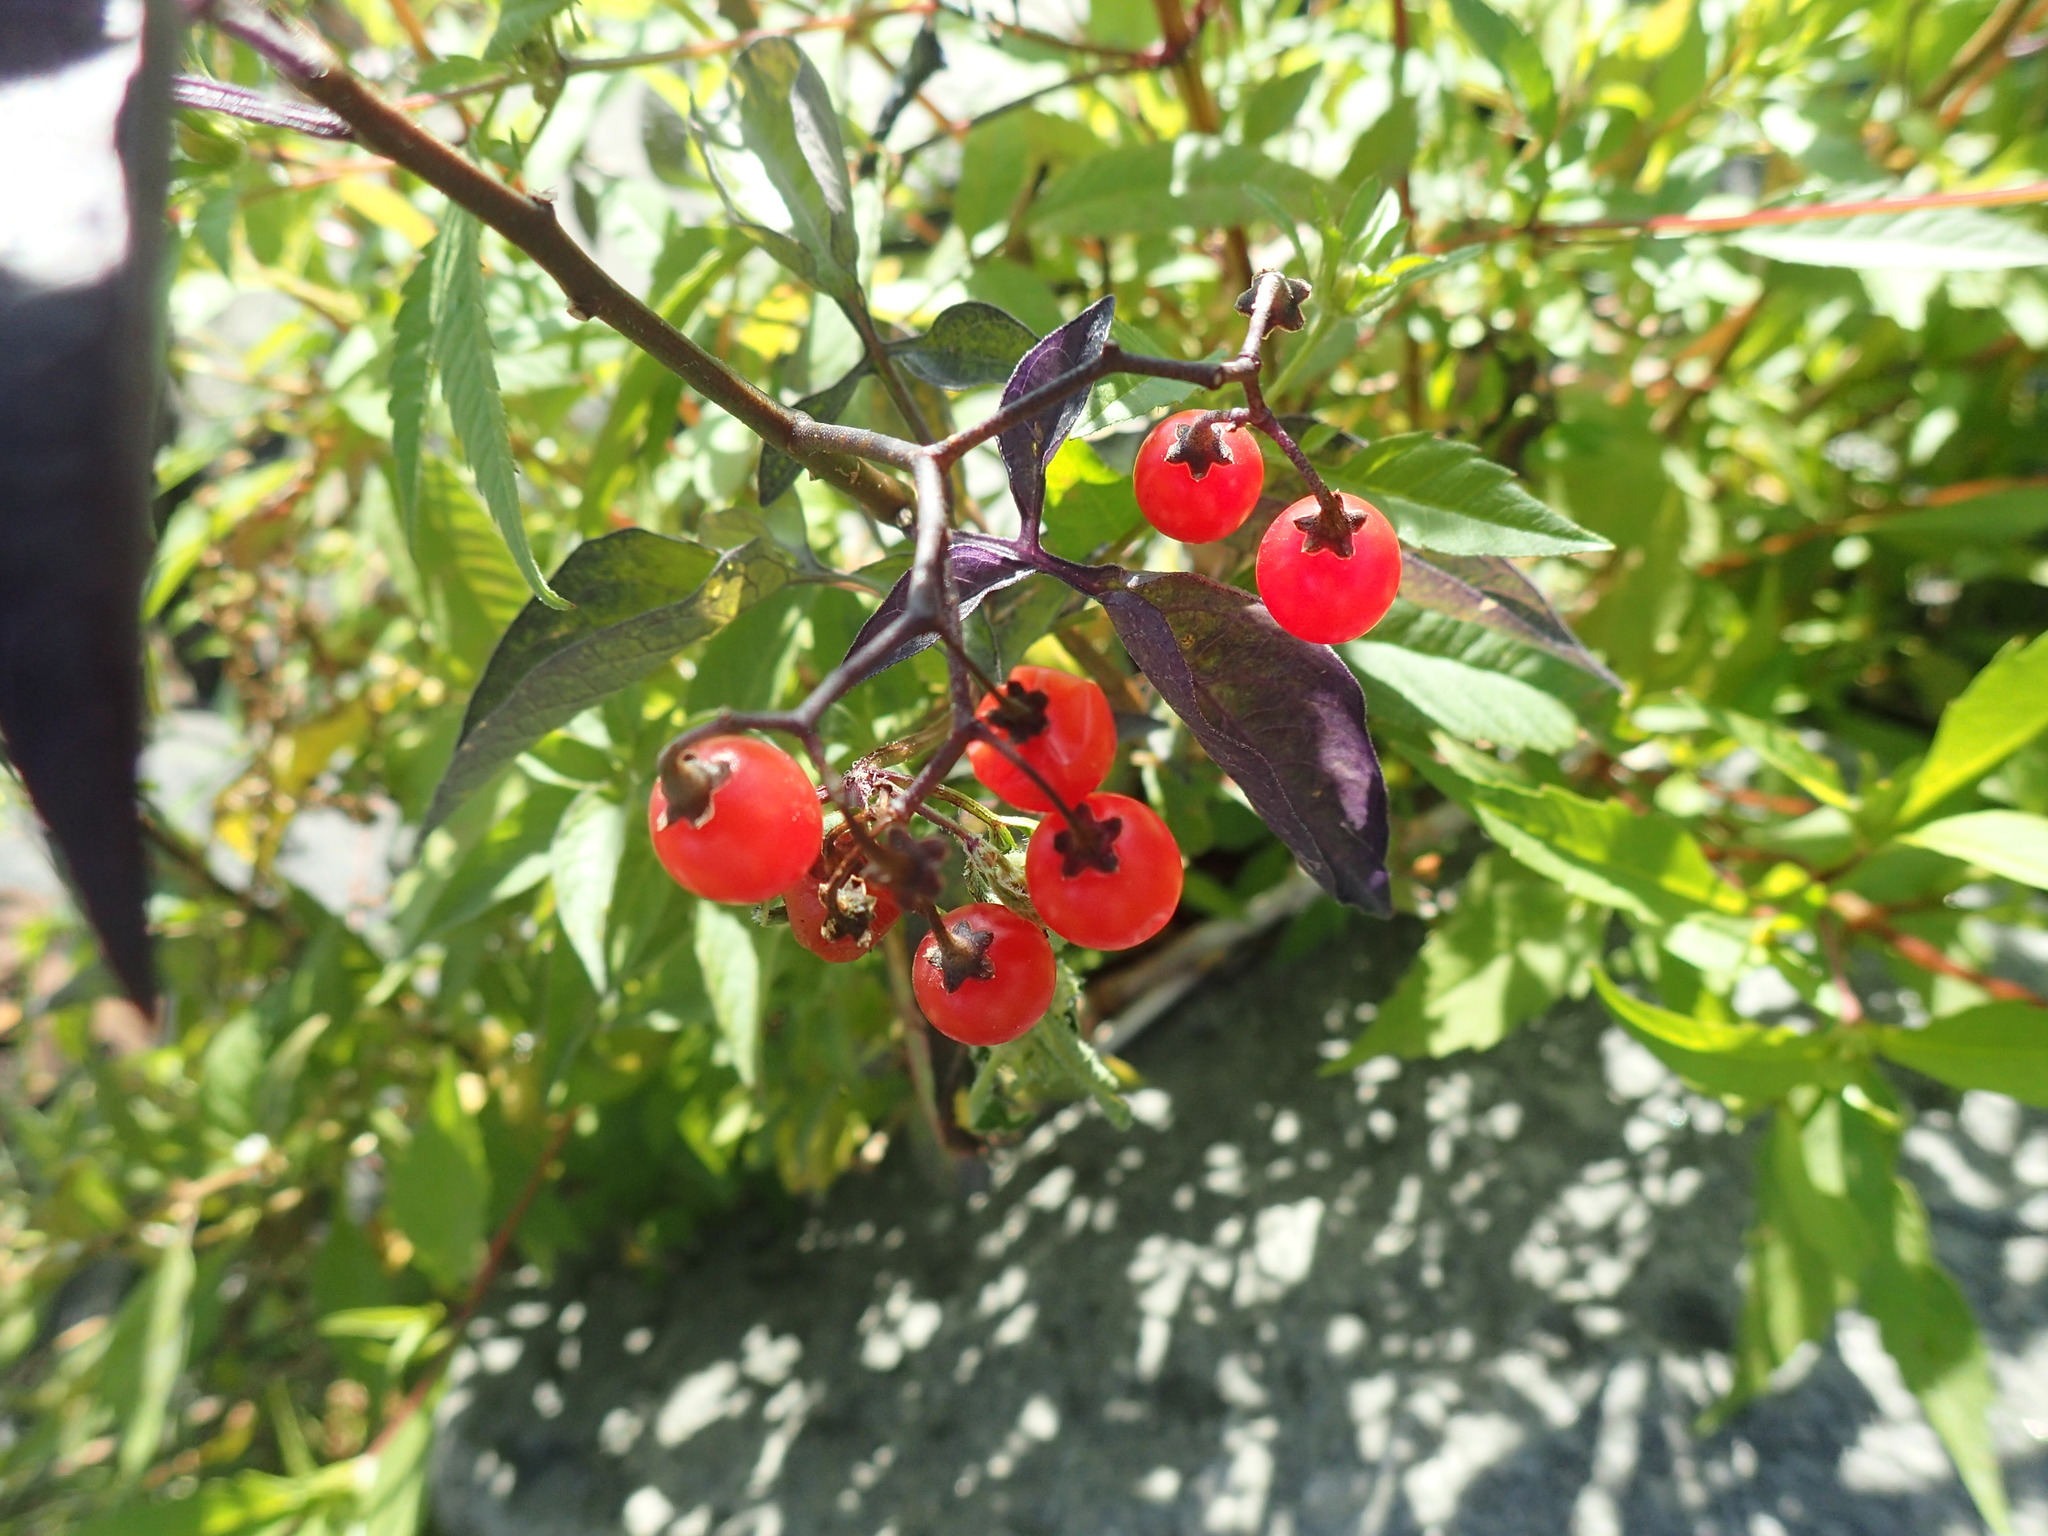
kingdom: Plantae
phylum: Tracheophyta
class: Magnoliopsida
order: Solanales
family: Solanaceae
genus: Solanum
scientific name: Solanum dulcamara
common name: Climbing nightshade
